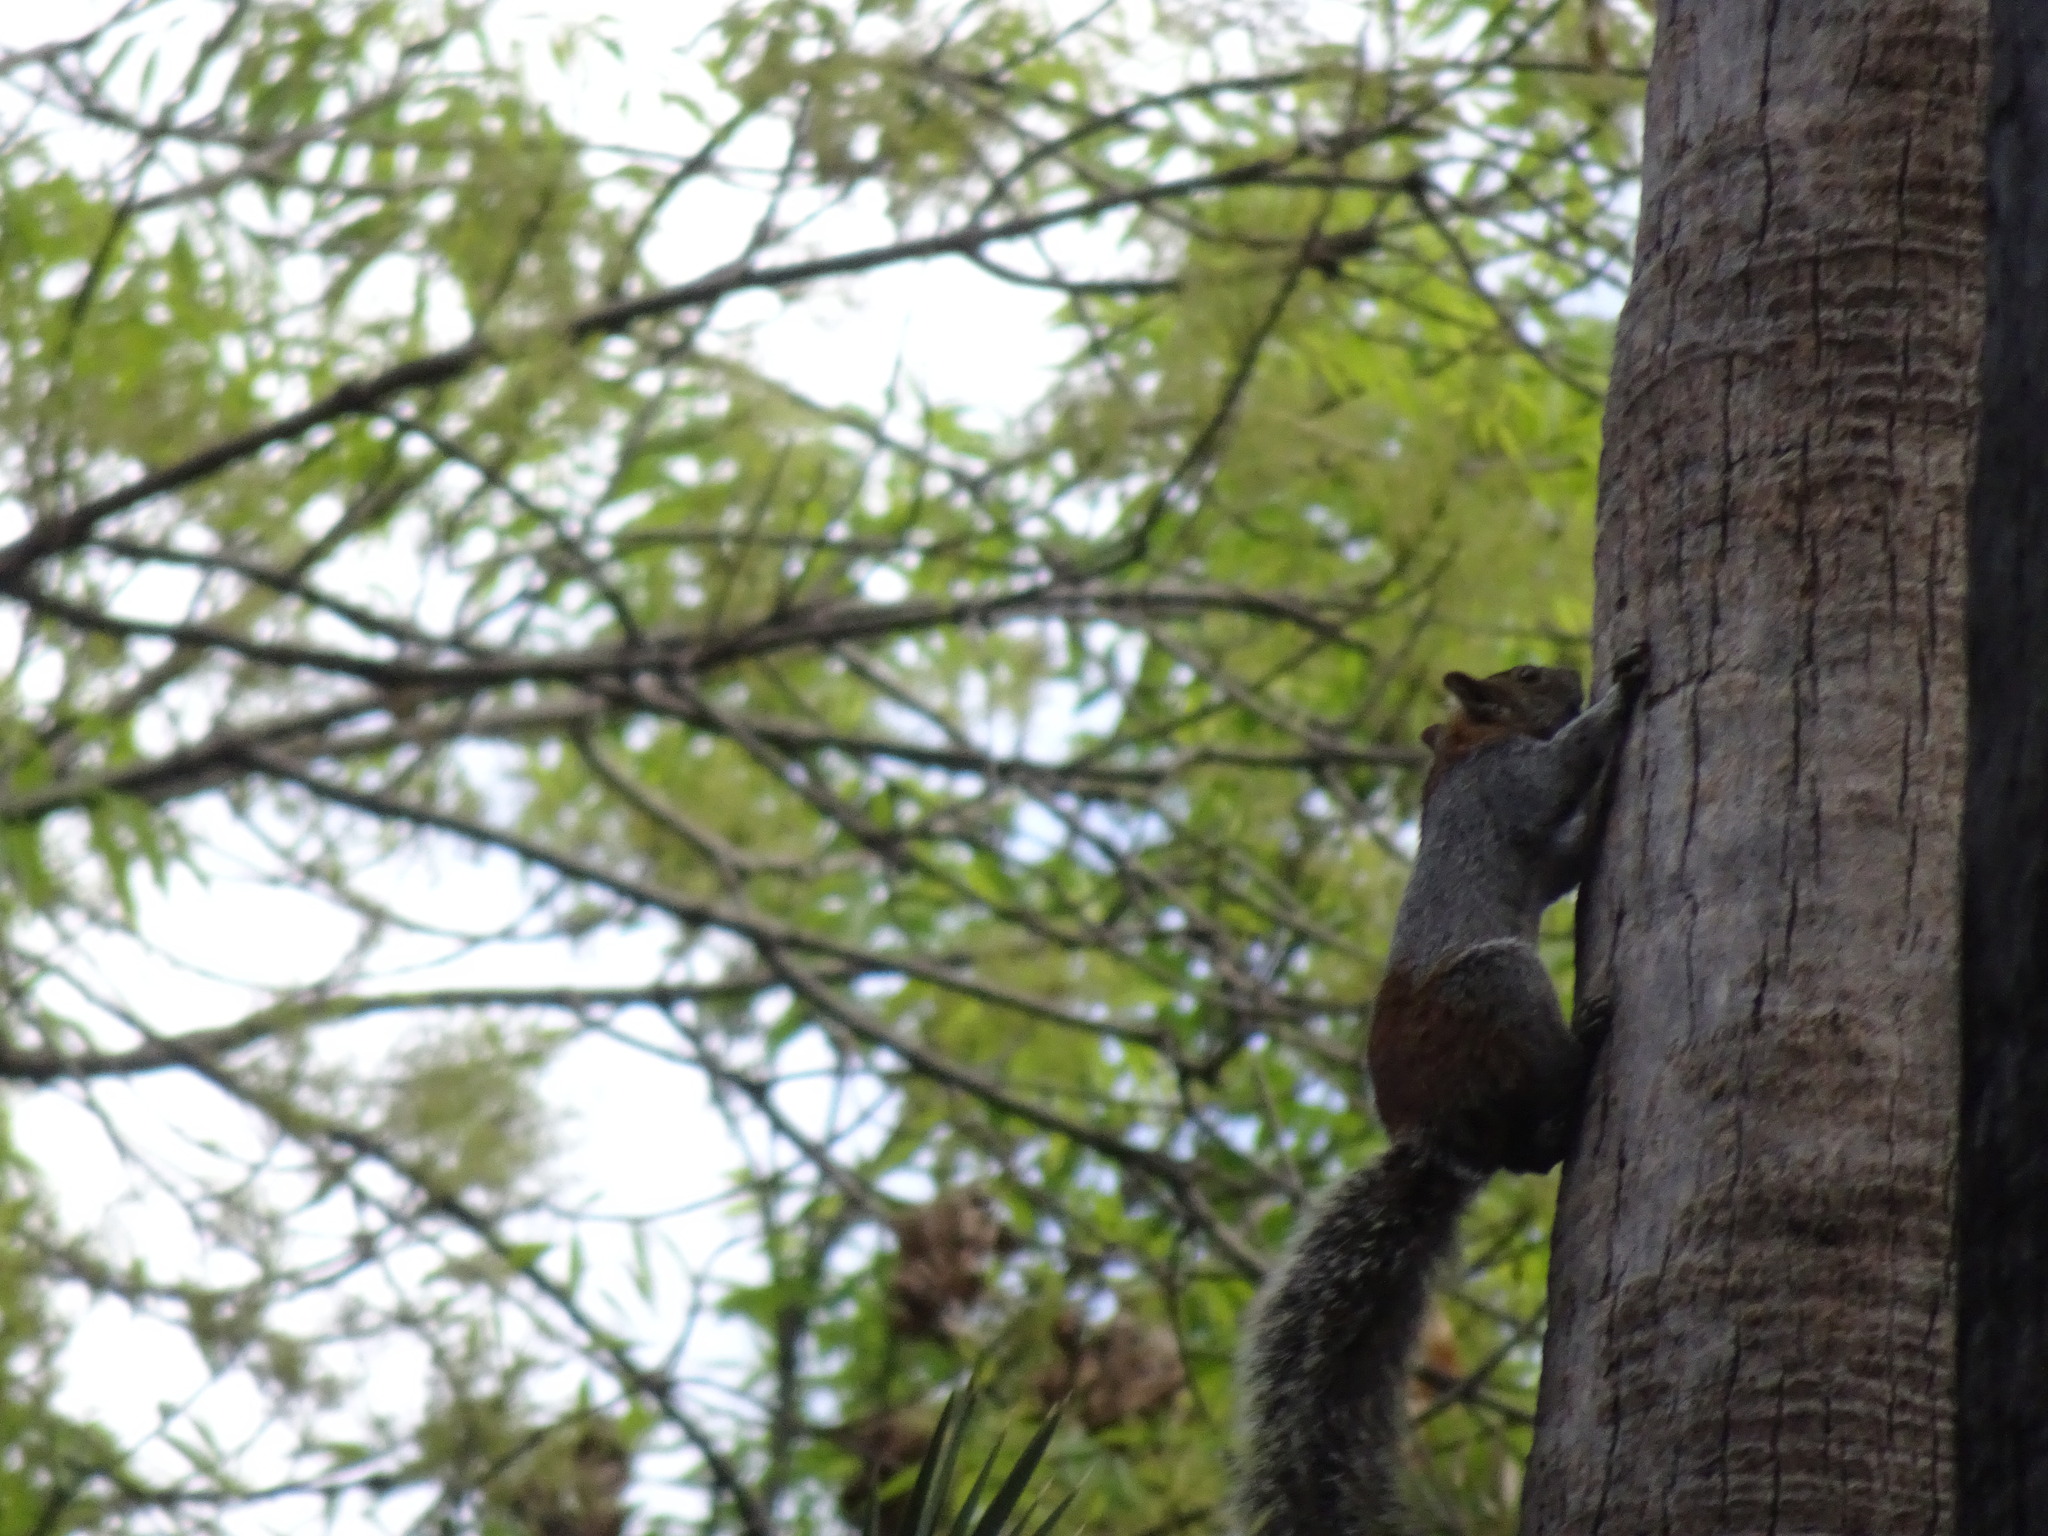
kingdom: Animalia
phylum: Chordata
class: Mammalia
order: Rodentia
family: Sciuridae
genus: Sciurus
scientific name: Sciurus aureogaster
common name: Red-bellied squirrel
